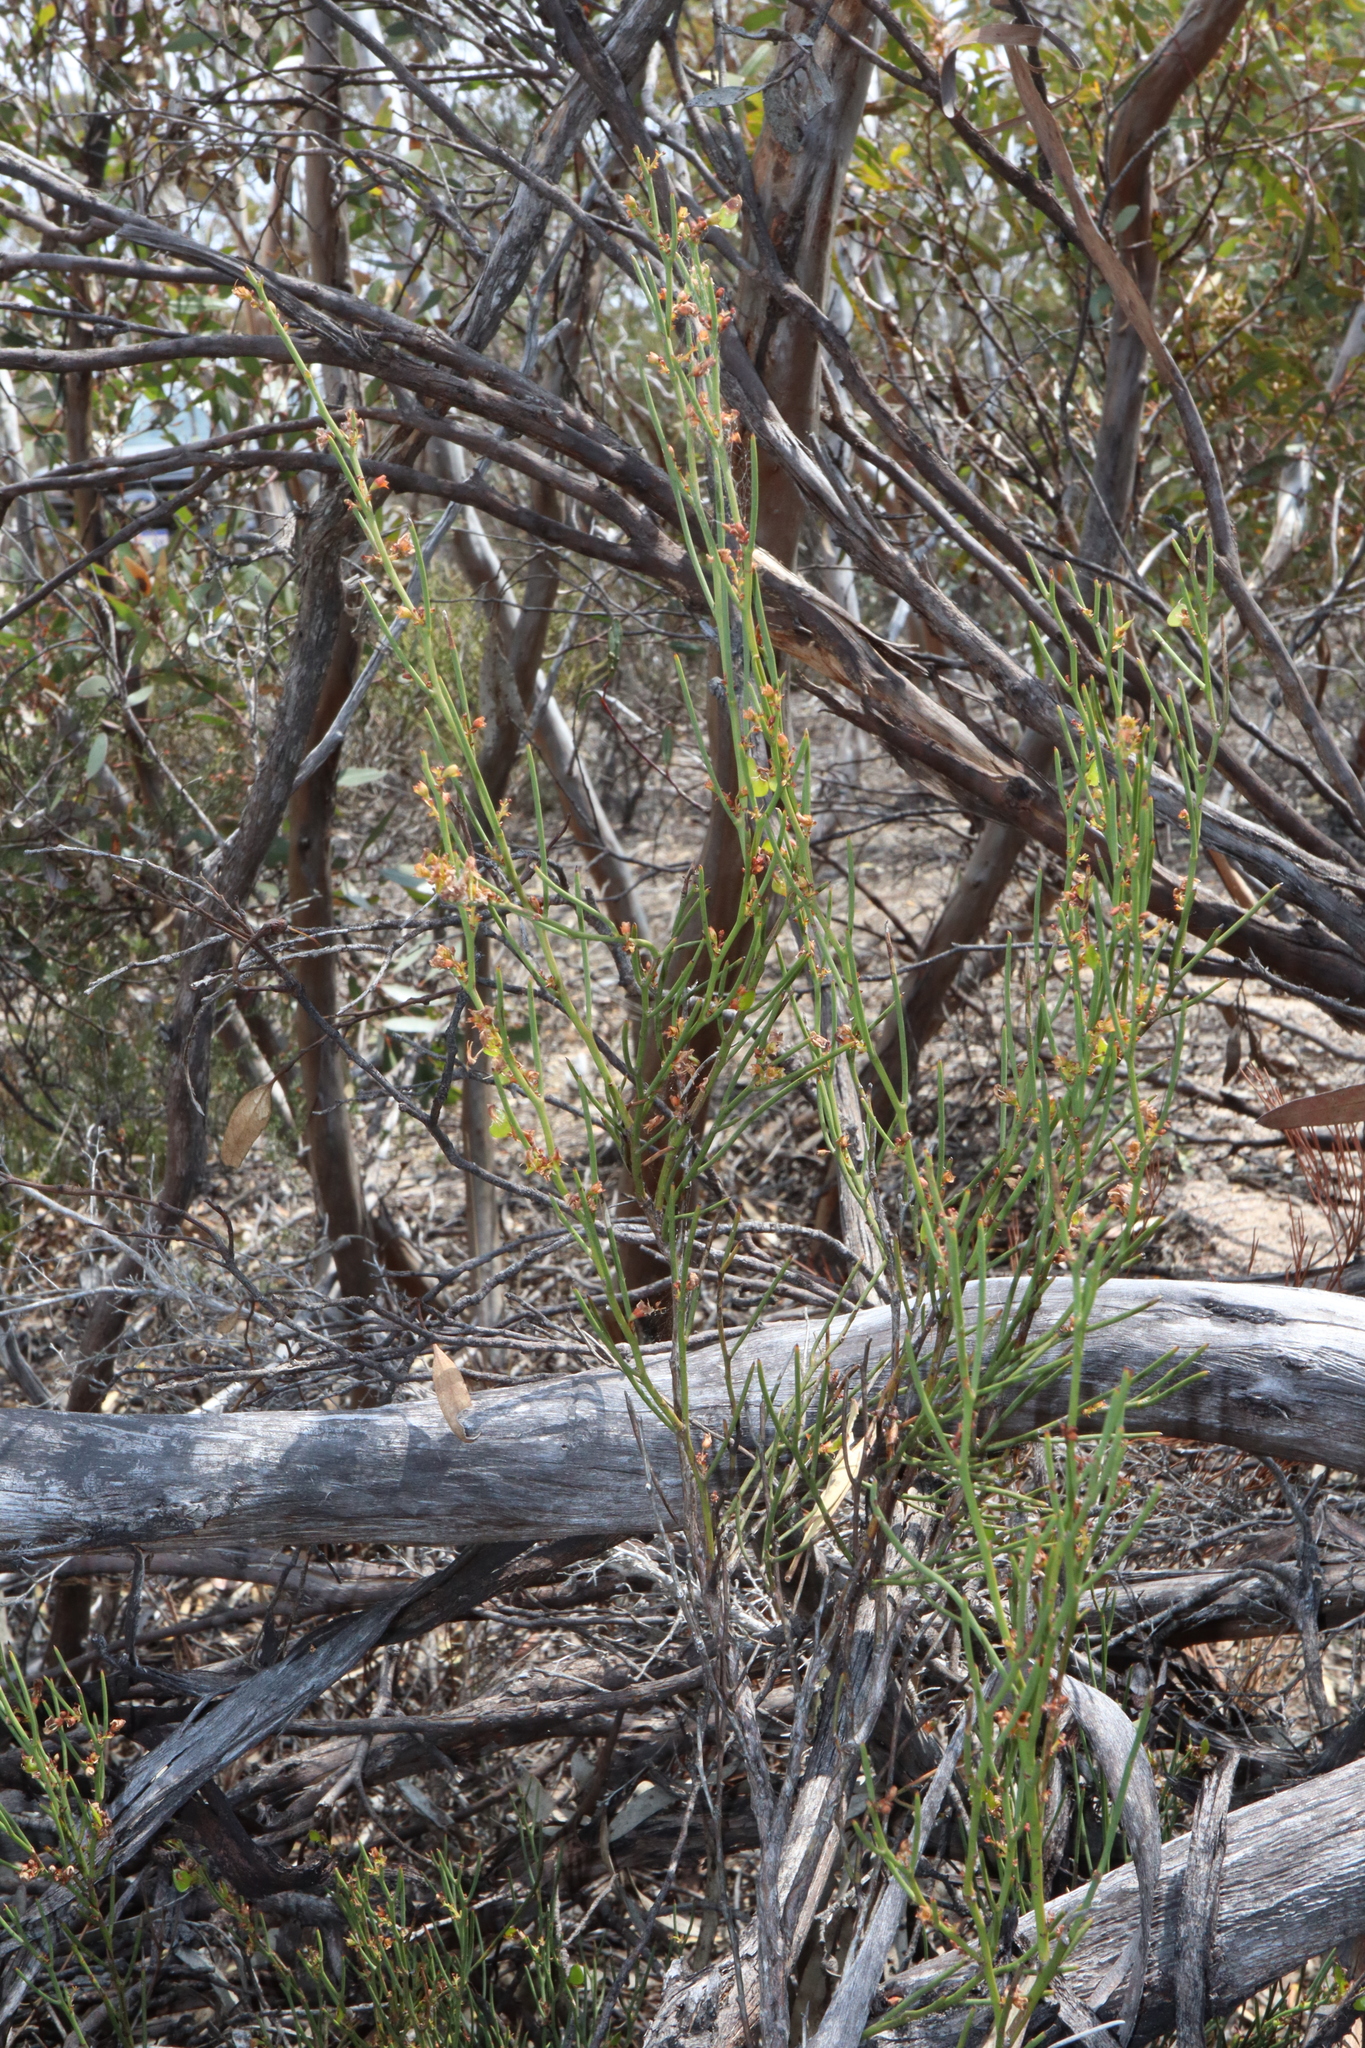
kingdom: Plantae
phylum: Tracheophyta
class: Magnoliopsida
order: Fabales
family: Fabaceae
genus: Daviesia
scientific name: Daviesia nematophylla
